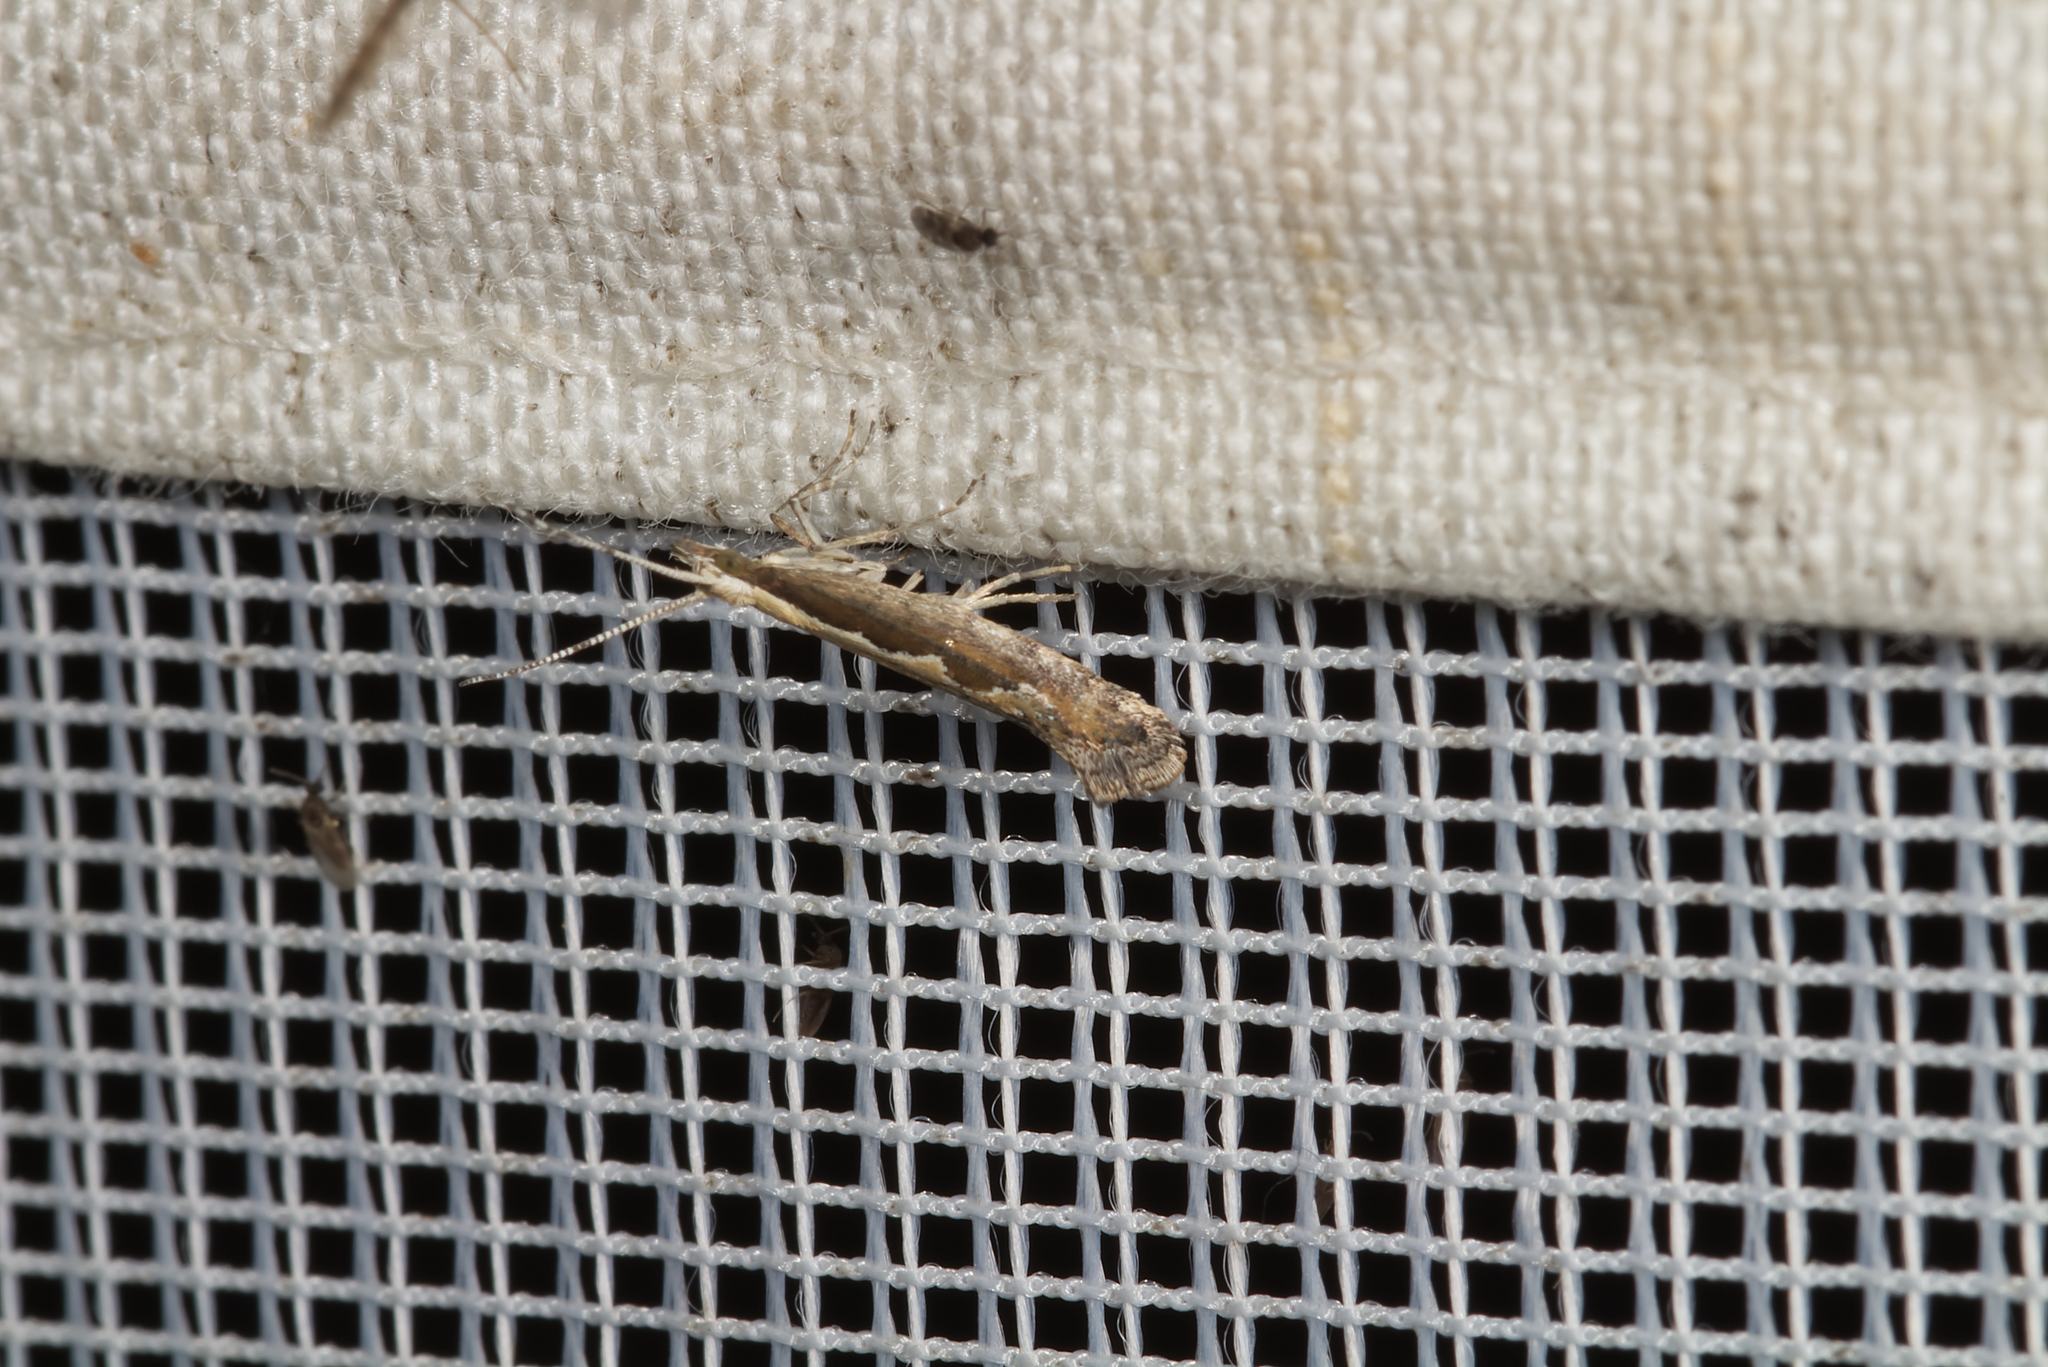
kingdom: Animalia
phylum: Arthropoda
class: Insecta
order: Lepidoptera
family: Plutellidae
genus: Plutella
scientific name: Plutella xylostella
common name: Diamond-back moth
